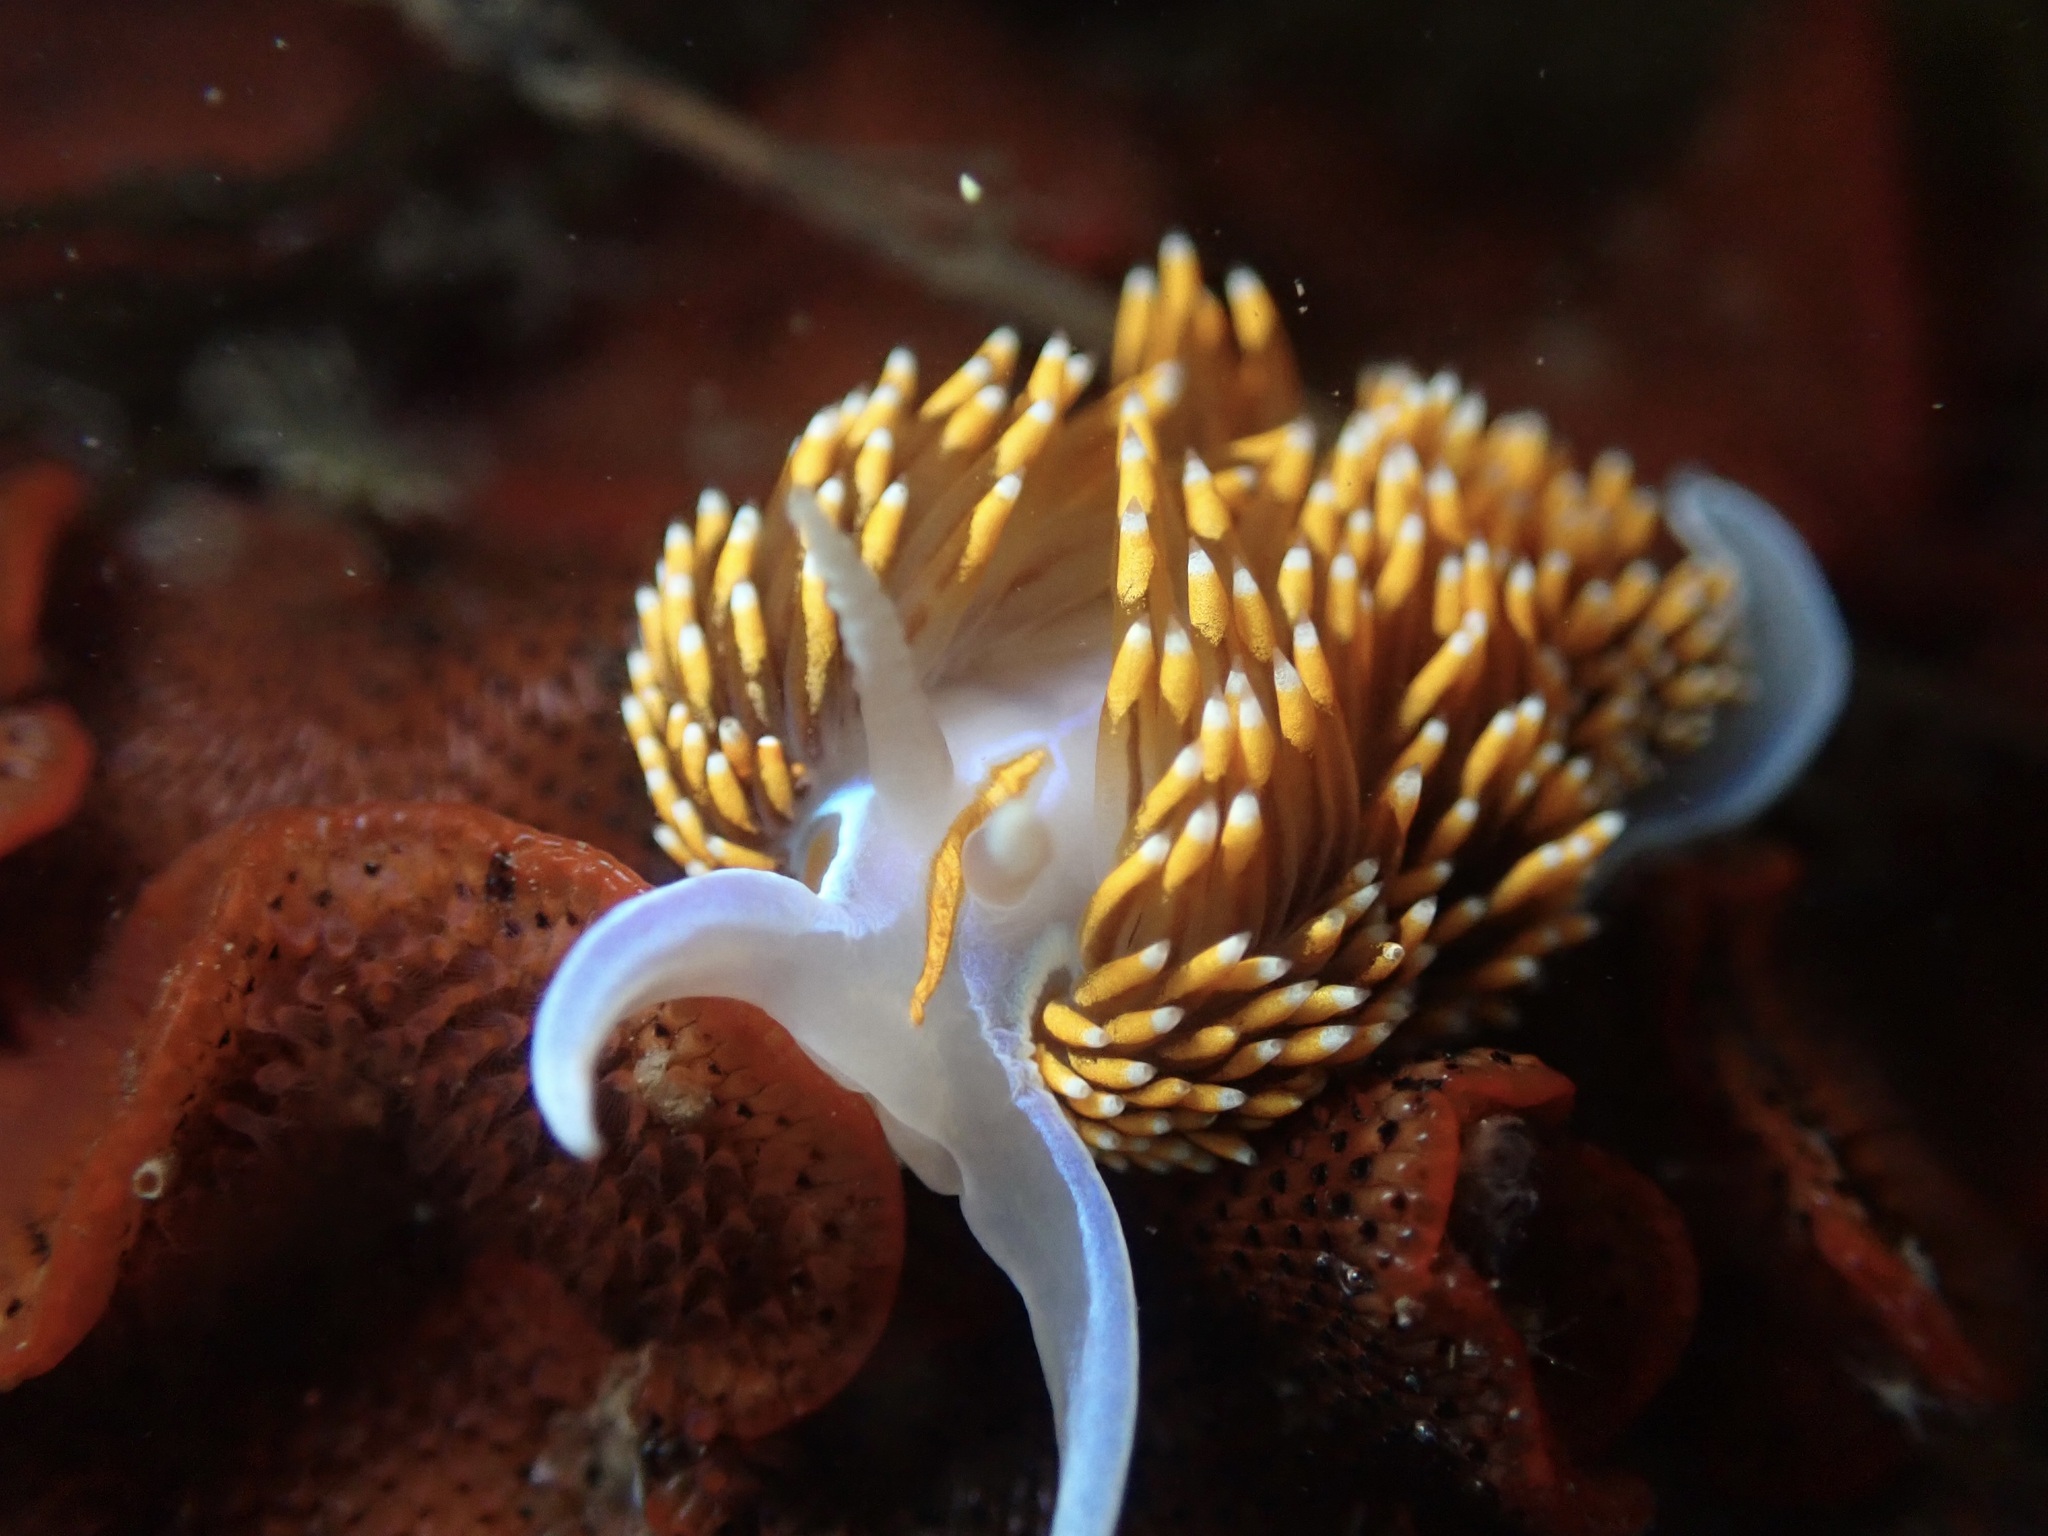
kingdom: Animalia
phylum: Mollusca
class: Gastropoda
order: Nudibranchia
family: Myrrhinidae
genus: Hermissenda
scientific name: Hermissenda opalescens
